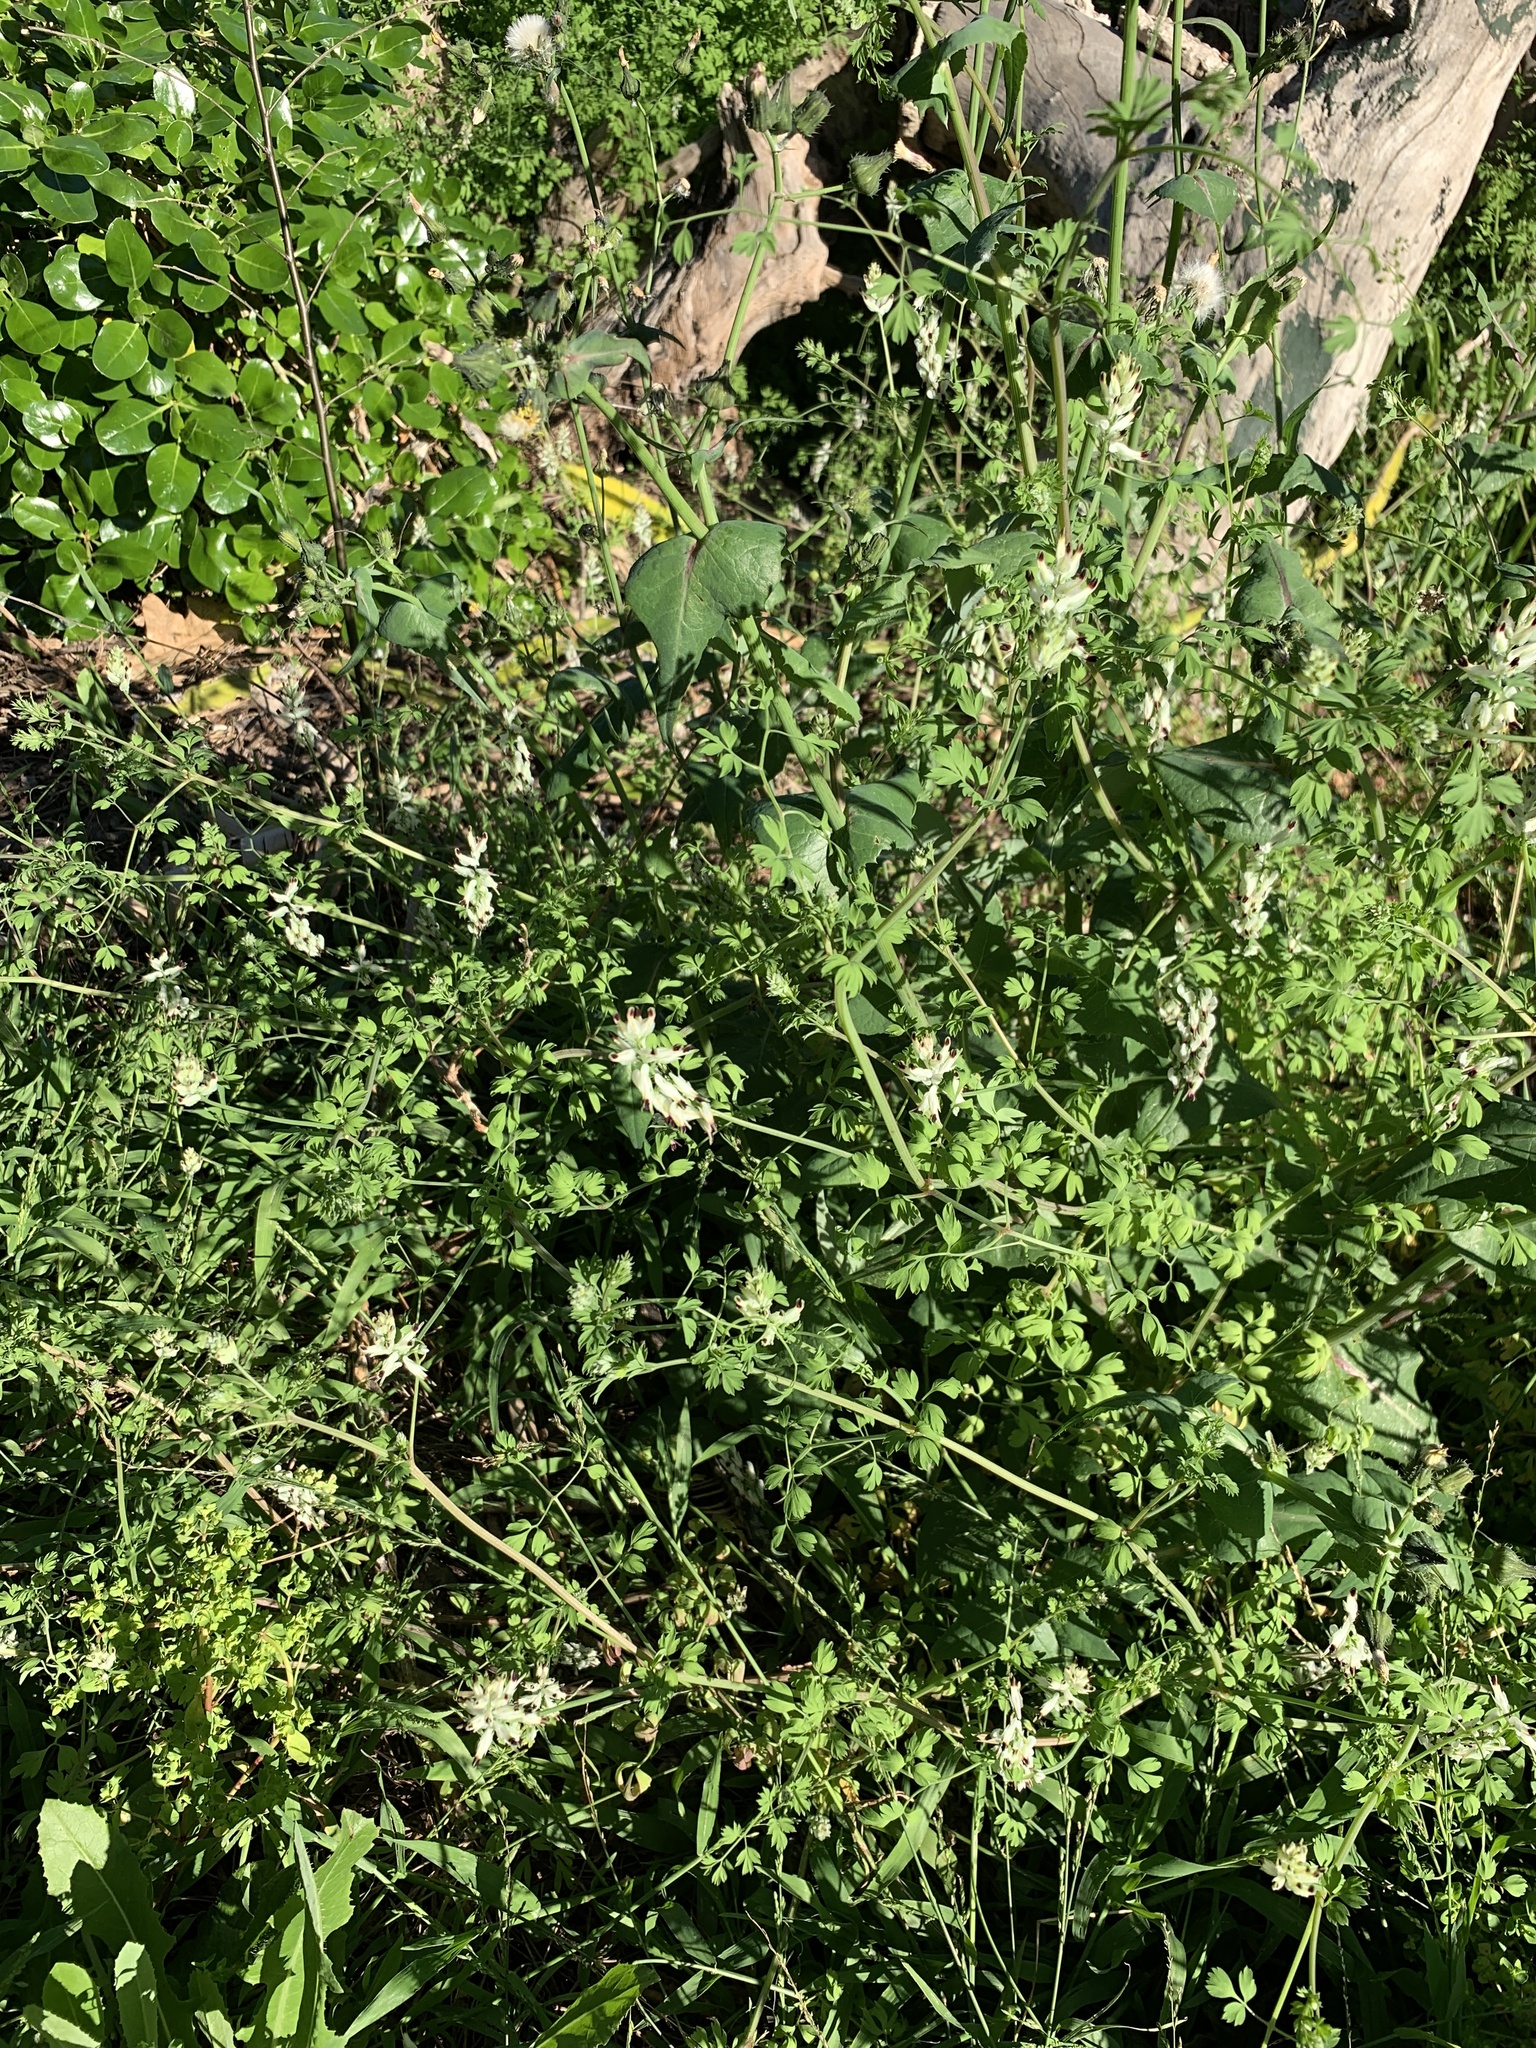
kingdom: Plantae
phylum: Tracheophyta
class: Magnoliopsida
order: Ranunculales
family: Papaveraceae
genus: Fumaria
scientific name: Fumaria capreolata
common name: White ramping-fumitory
